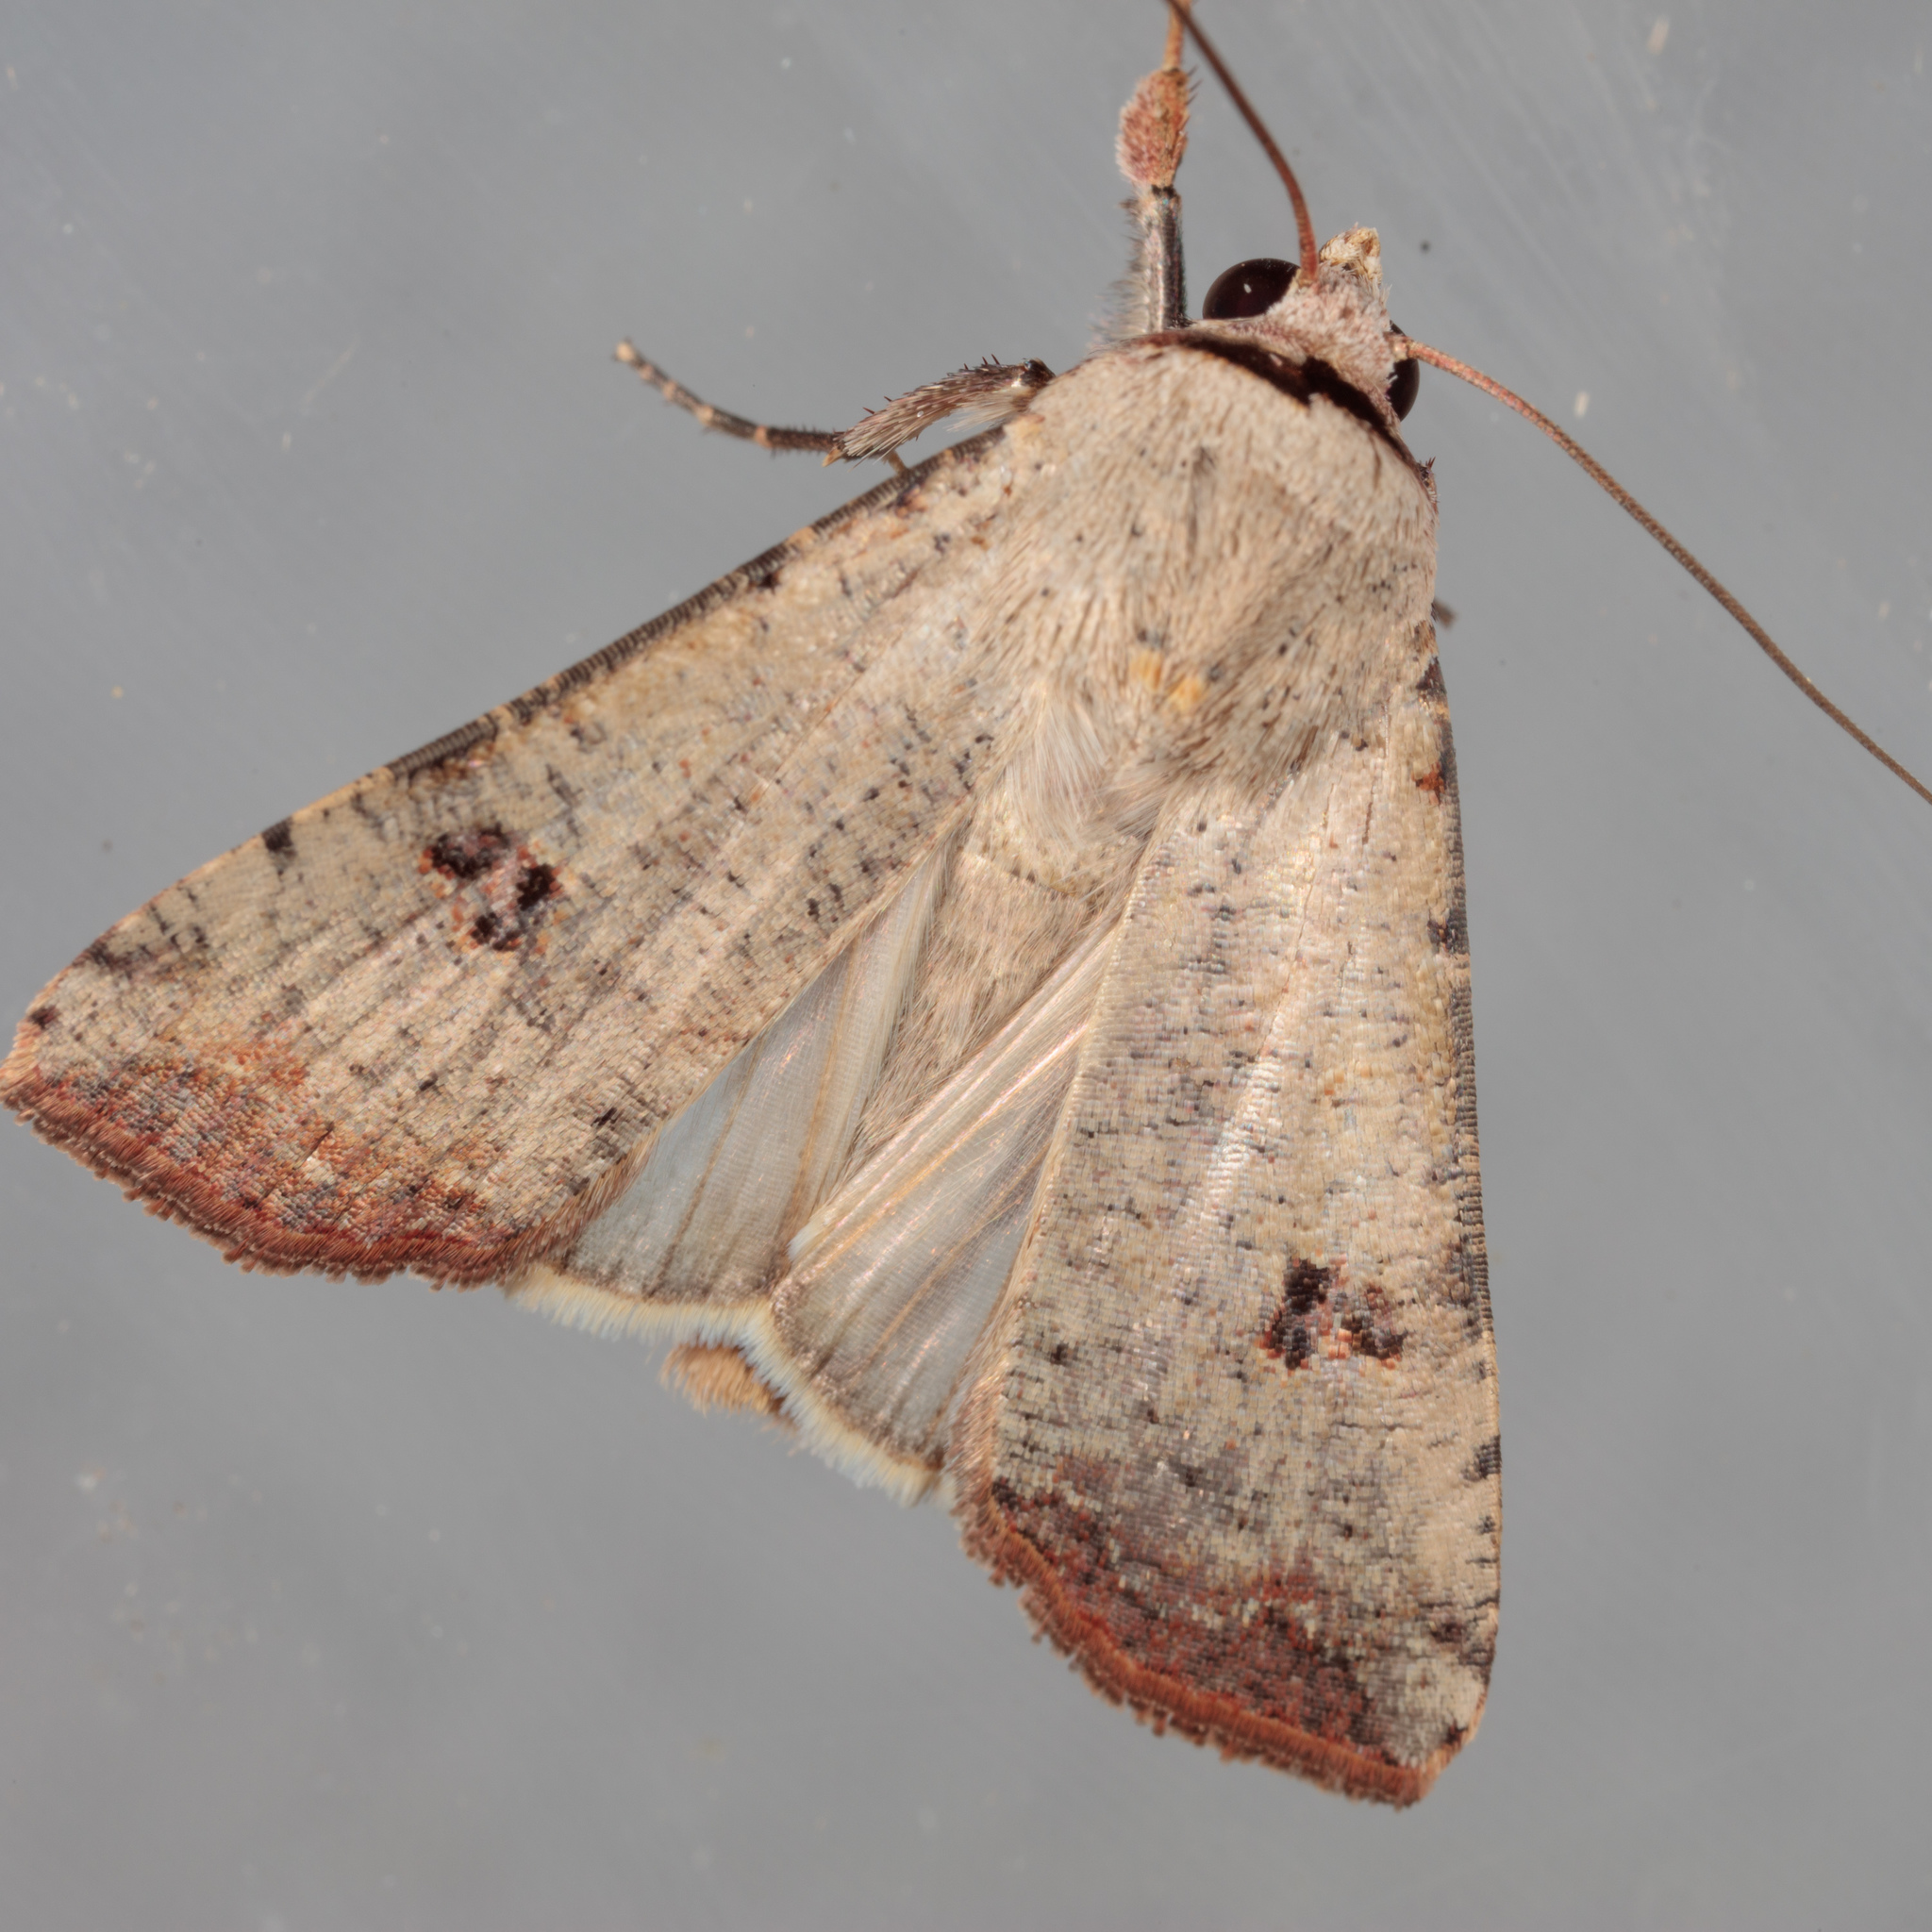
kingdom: Animalia
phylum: Arthropoda
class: Insecta
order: Lepidoptera
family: Noctuidae
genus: Anicla
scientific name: Anicla infecta
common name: Green cutworm
